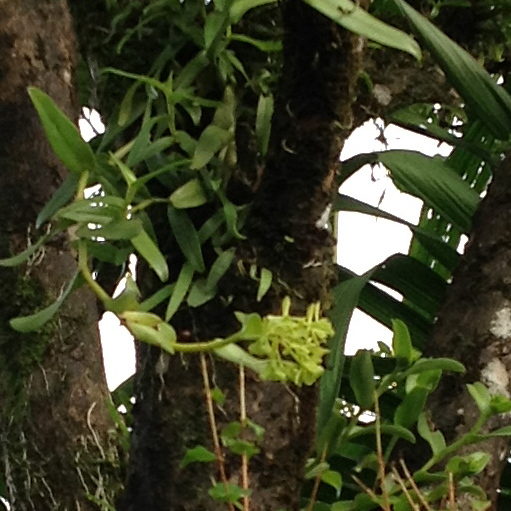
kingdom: Plantae
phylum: Tracheophyta
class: Liliopsida
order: Asparagales
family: Orchidaceae
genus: Epidendrum
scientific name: Epidendrum melistagum
